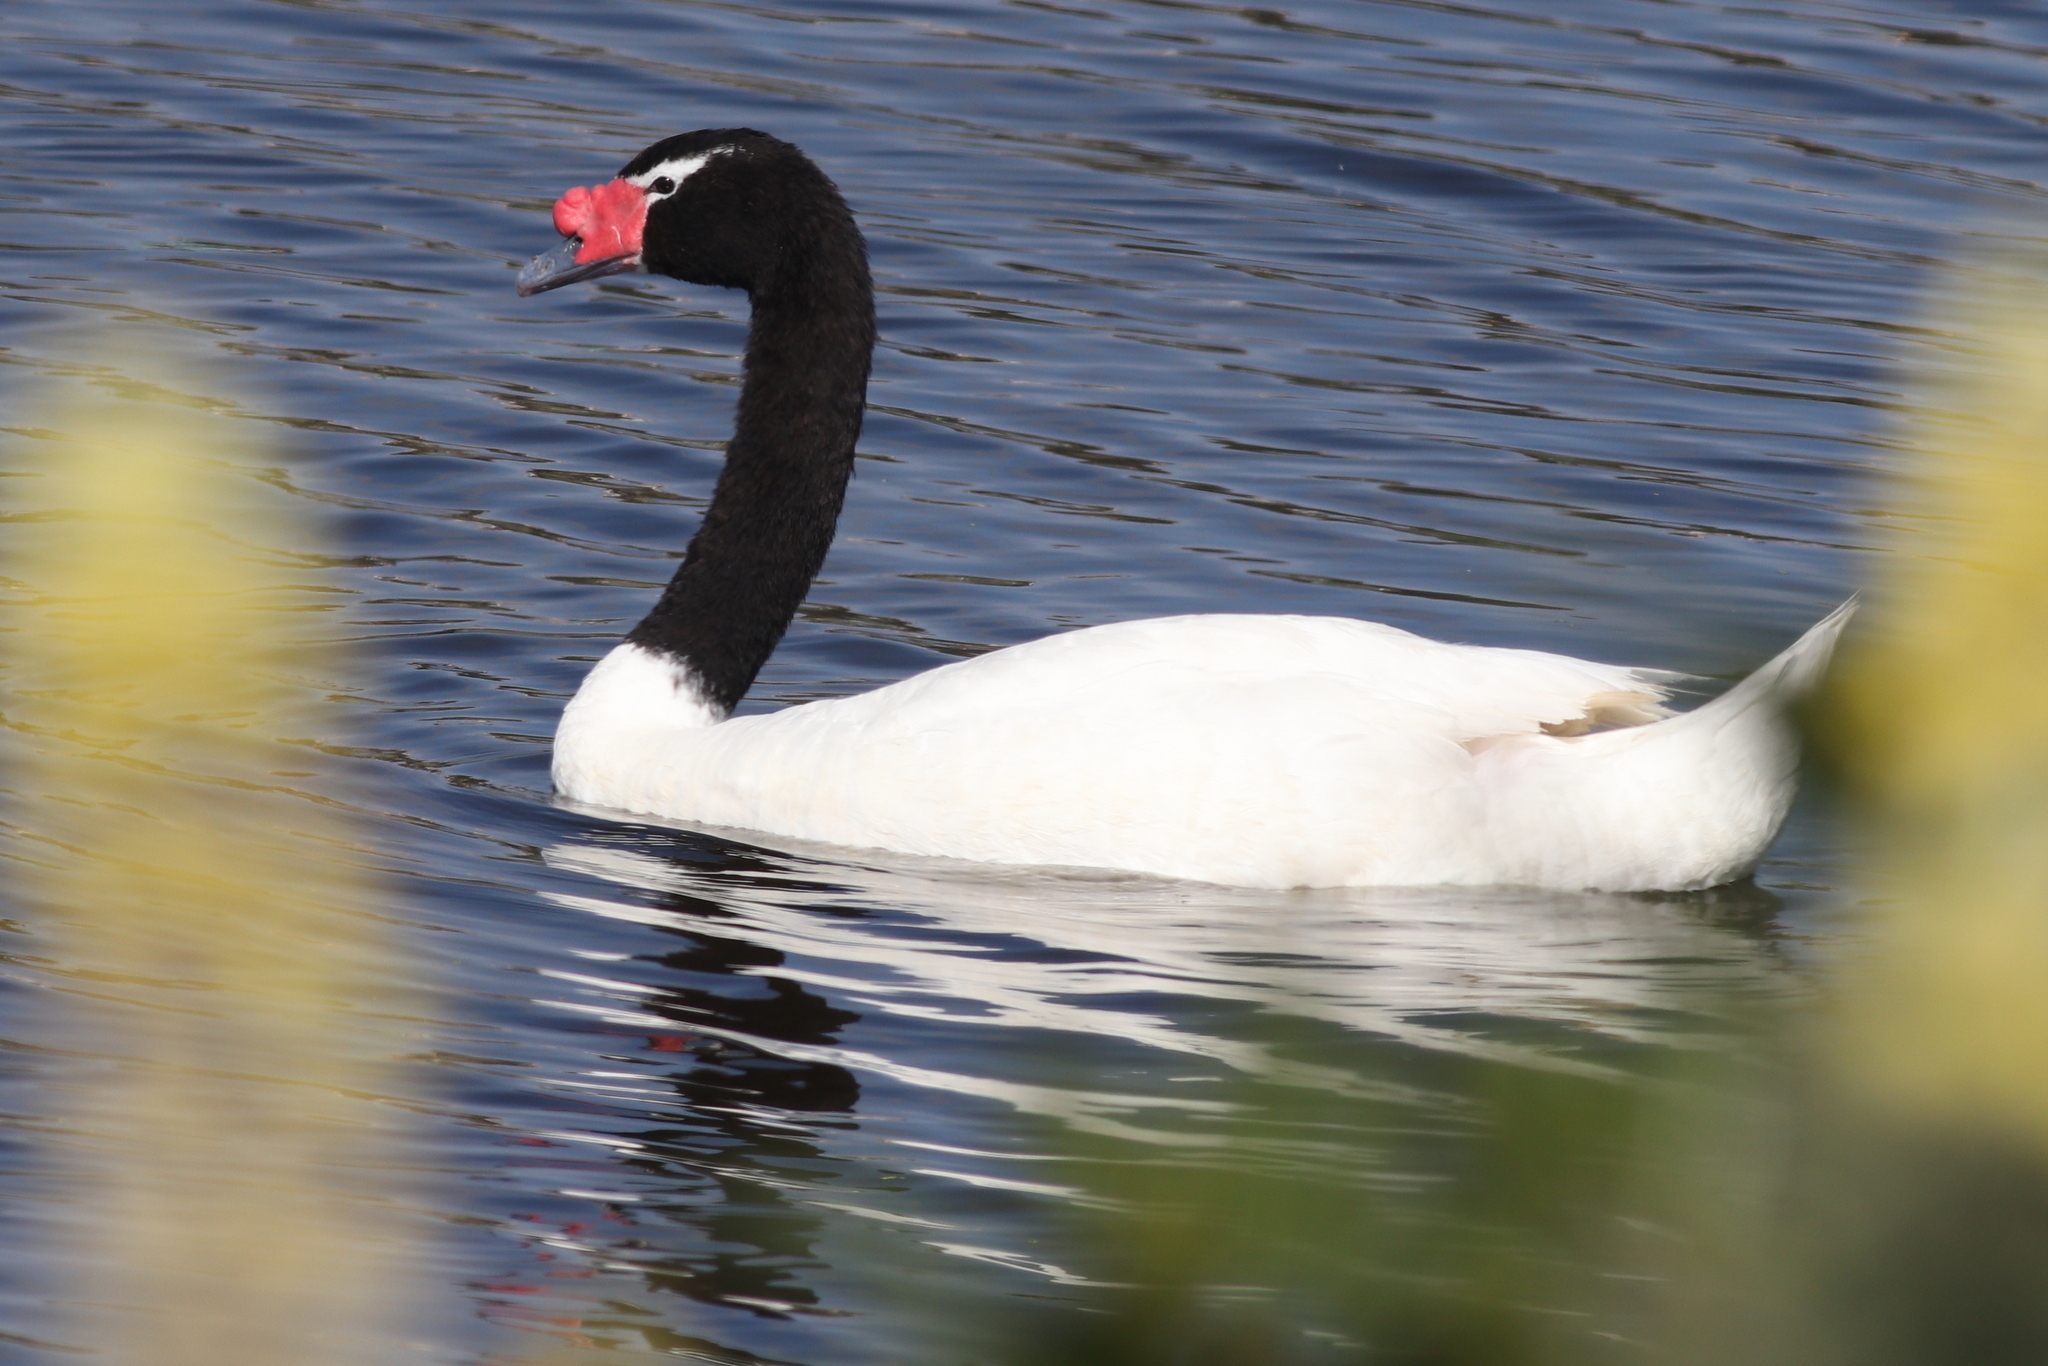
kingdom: Animalia
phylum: Chordata
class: Aves
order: Anseriformes
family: Anatidae
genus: Cygnus
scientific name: Cygnus melancoryphus
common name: Black-necked swan
